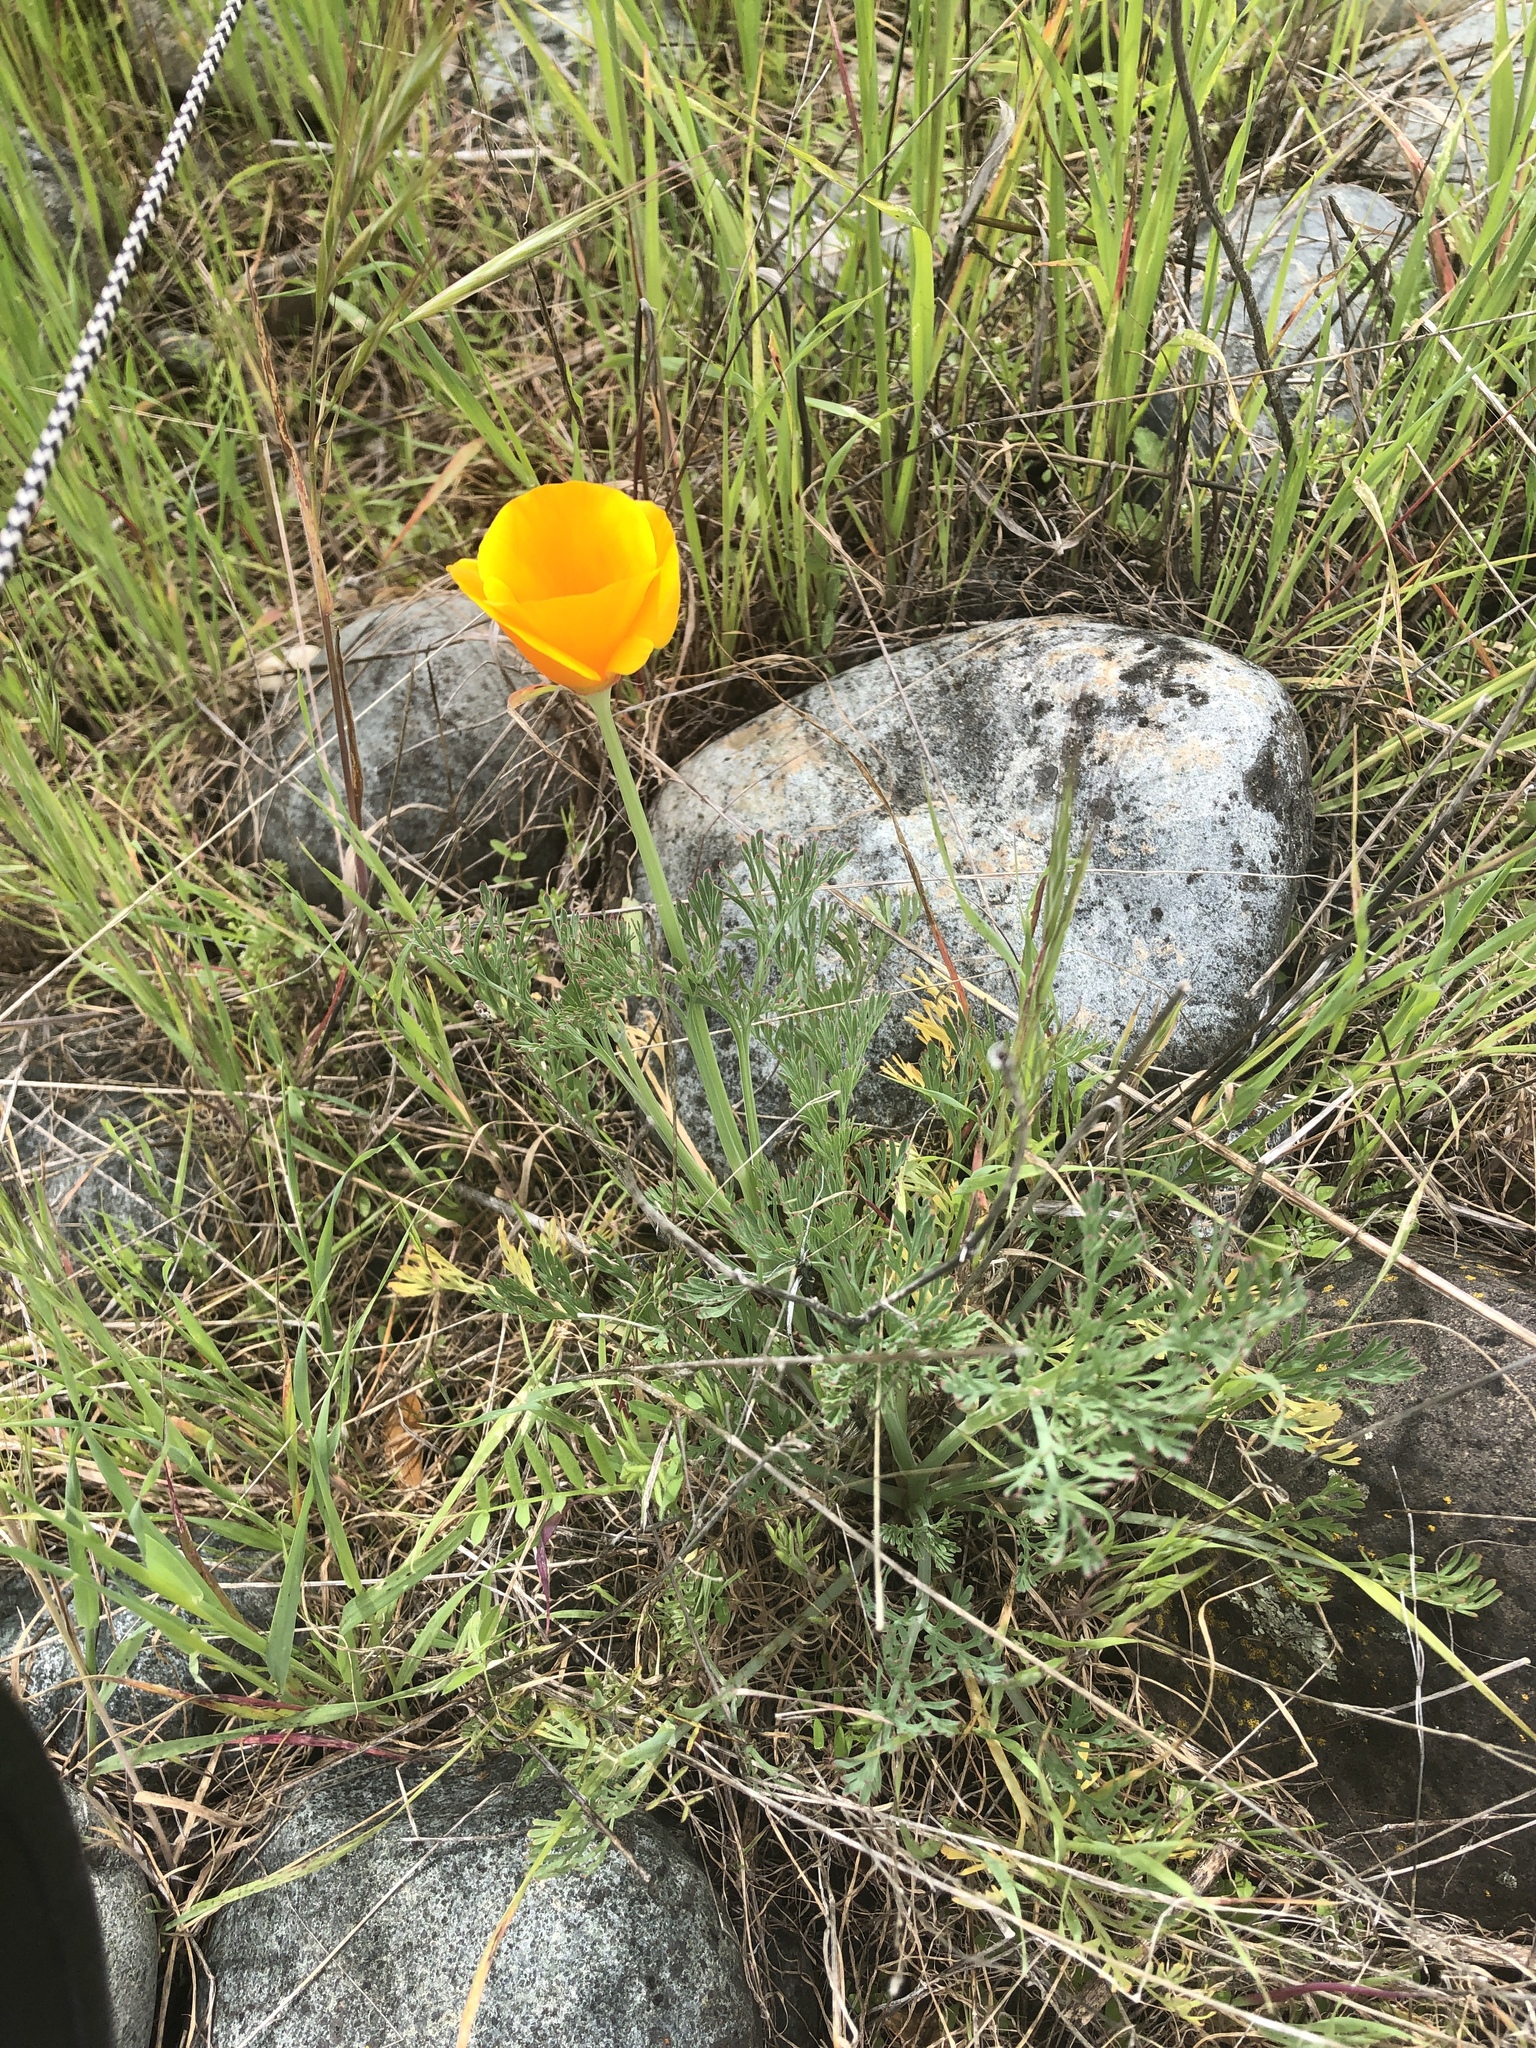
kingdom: Plantae
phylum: Tracheophyta
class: Magnoliopsida
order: Ranunculales
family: Papaveraceae
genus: Eschscholzia
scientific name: Eschscholzia californica
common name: California poppy
